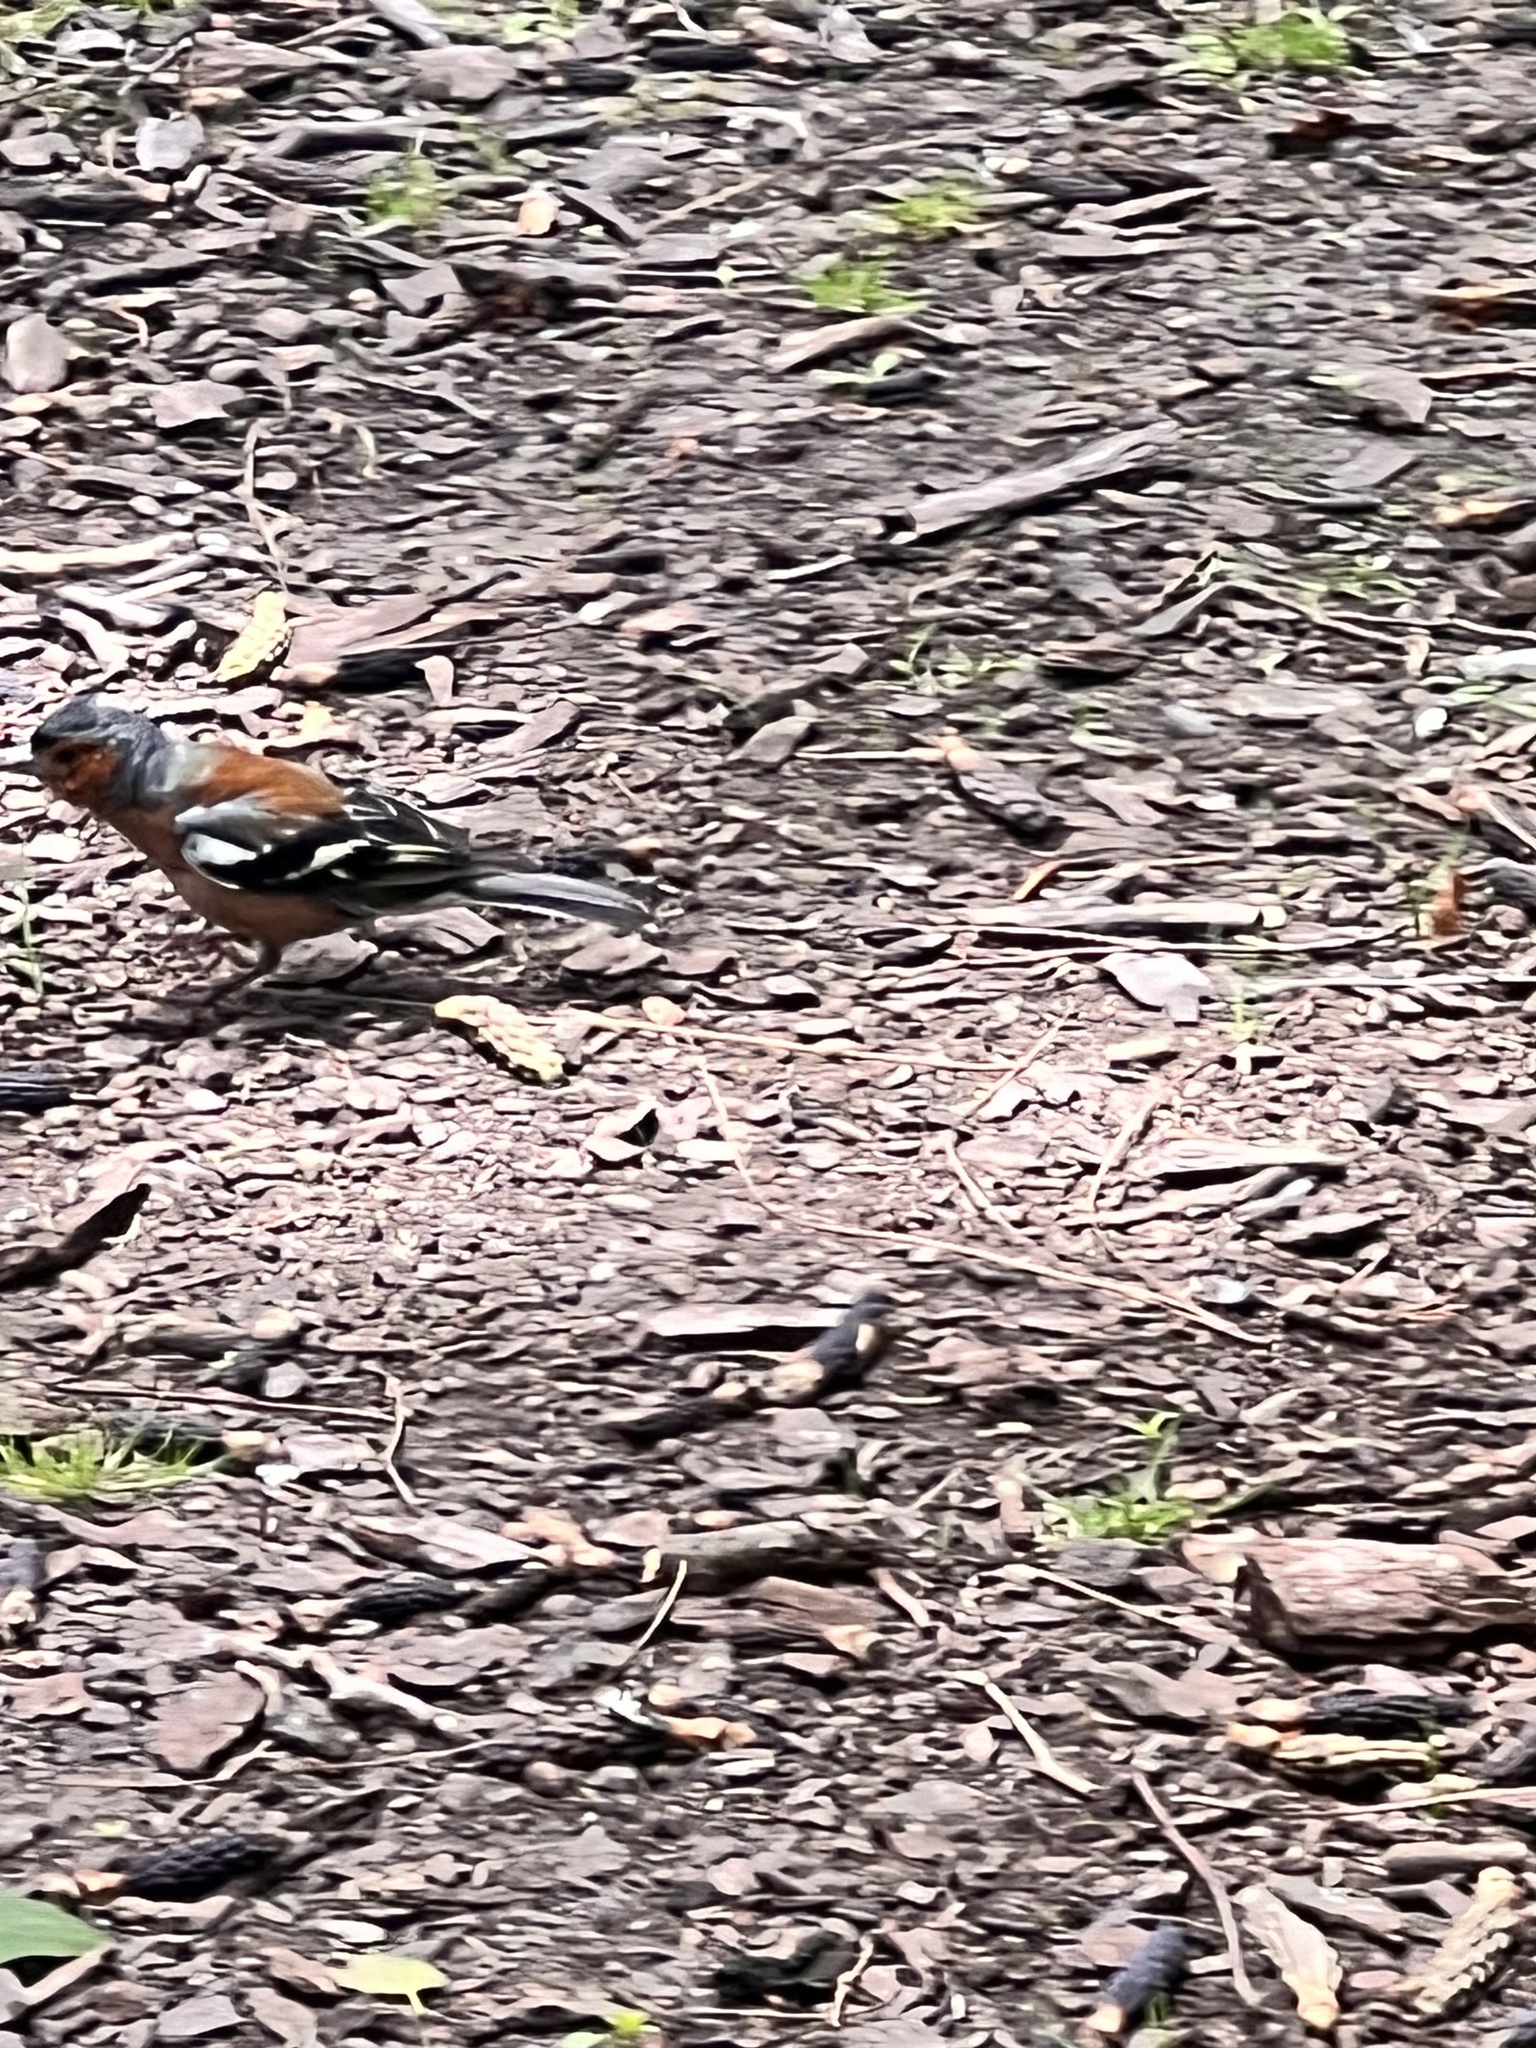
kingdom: Animalia
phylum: Chordata
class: Aves
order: Passeriformes
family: Fringillidae
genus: Fringilla
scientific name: Fringilla coelebs
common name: Common chaffinch
